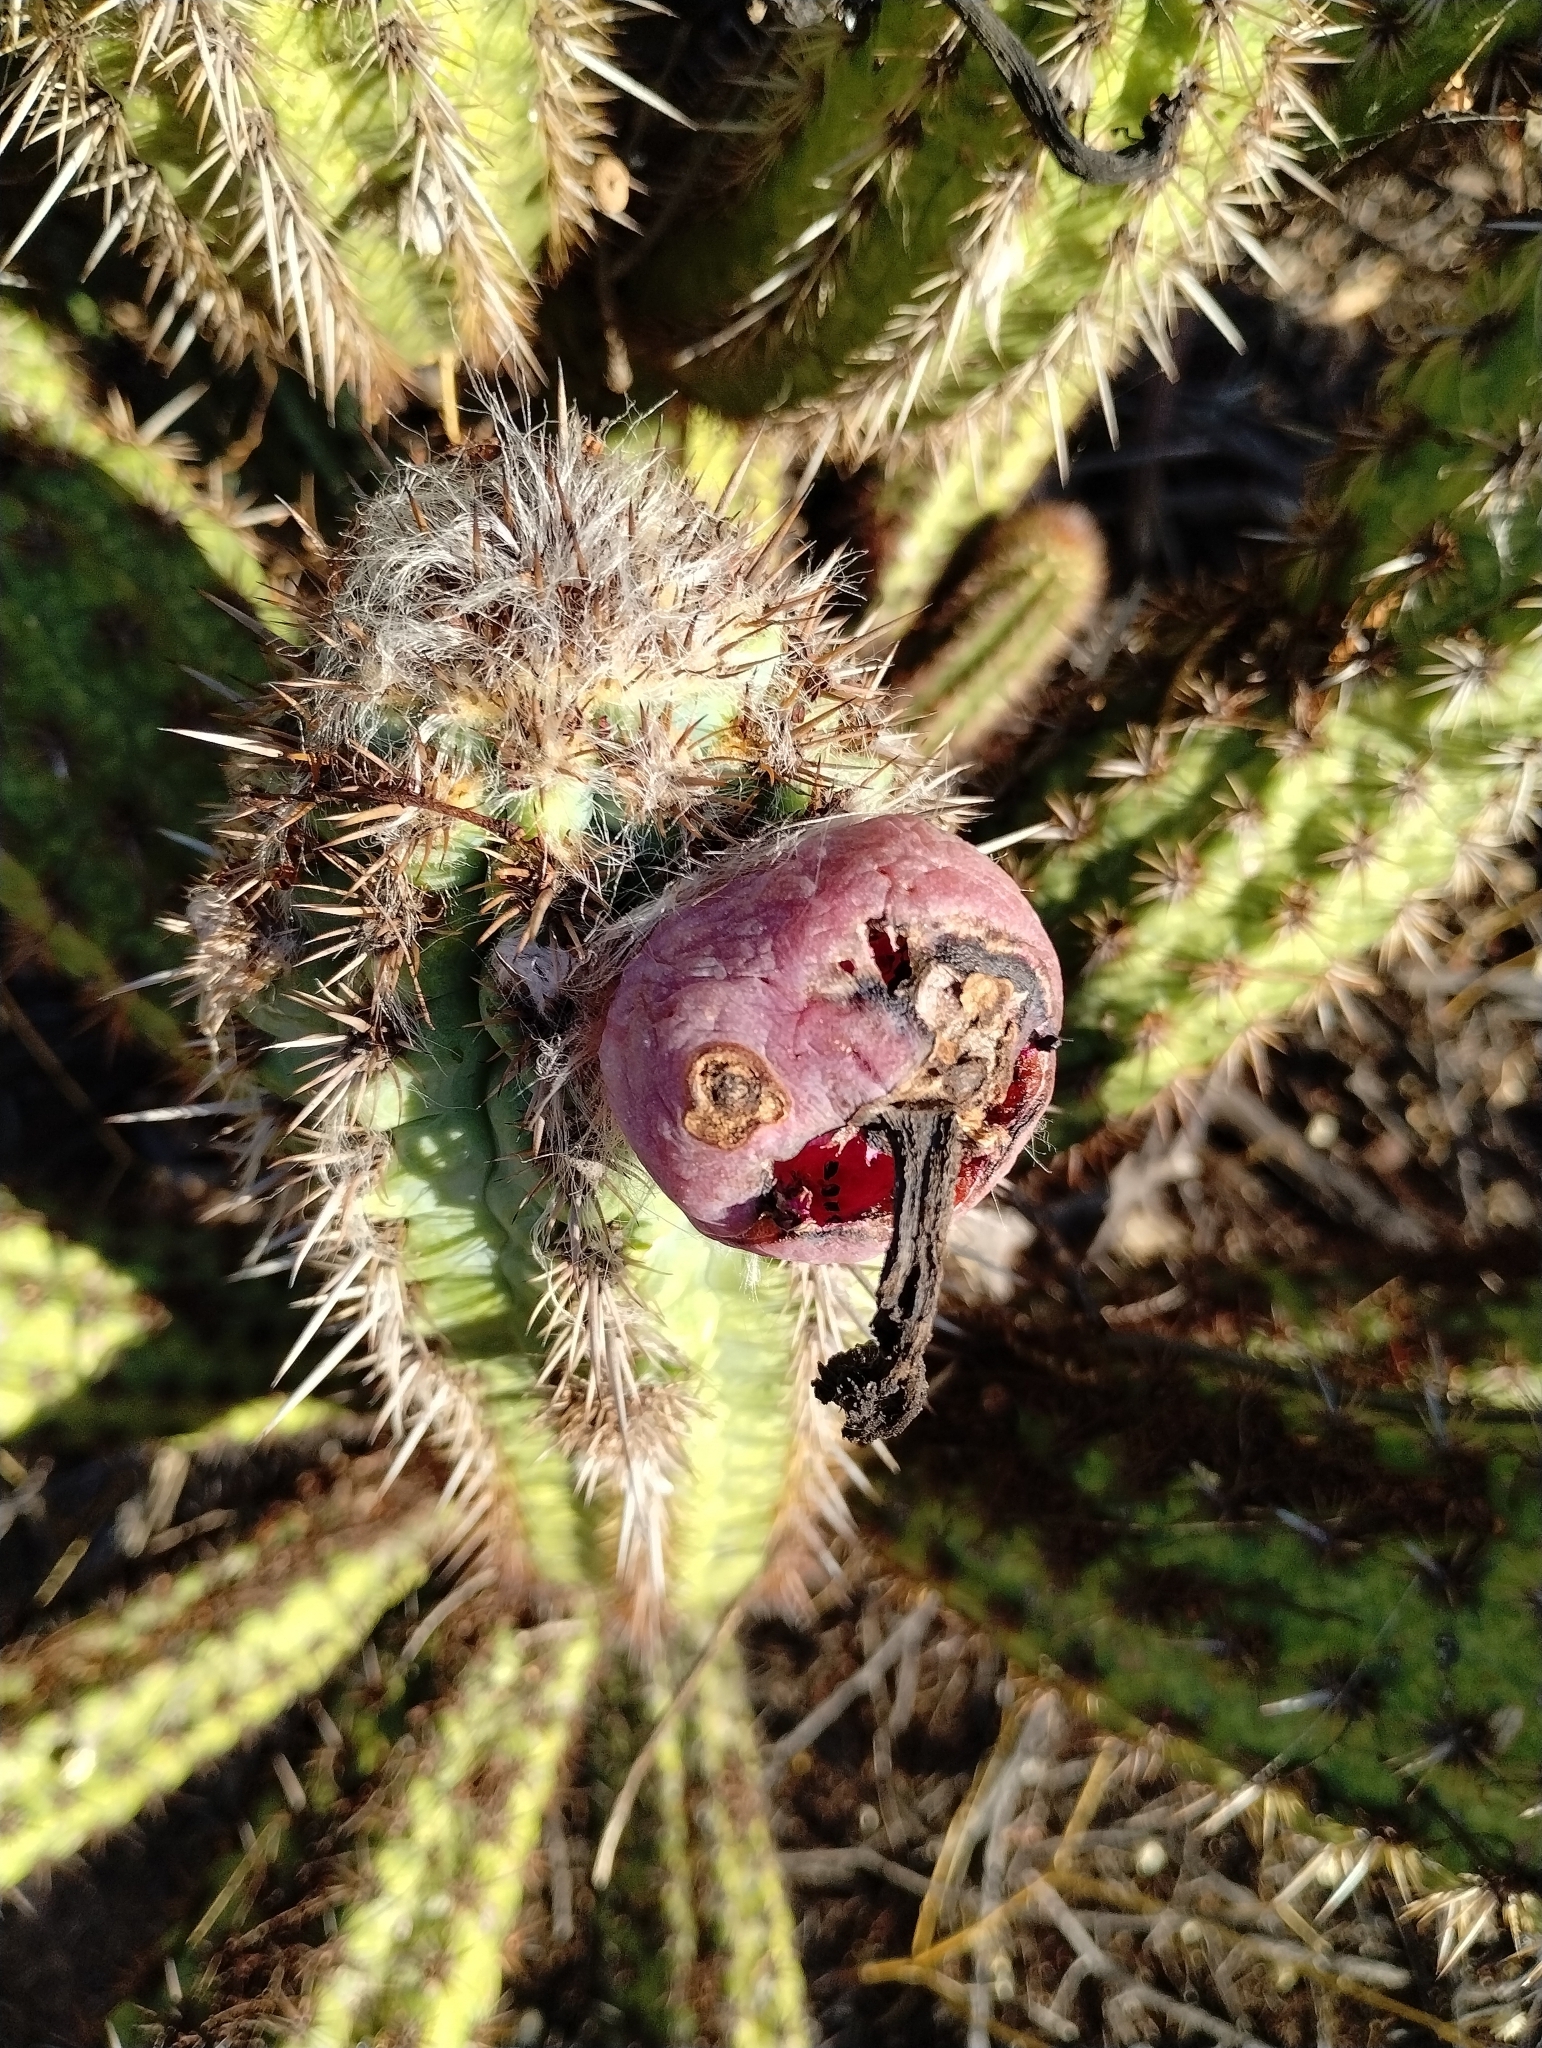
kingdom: Plantae
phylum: Tracheophyta
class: Magnoliopsida
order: Caryophyllales
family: Cactaceae
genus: Xiquexique
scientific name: Xiquexique gounellei
